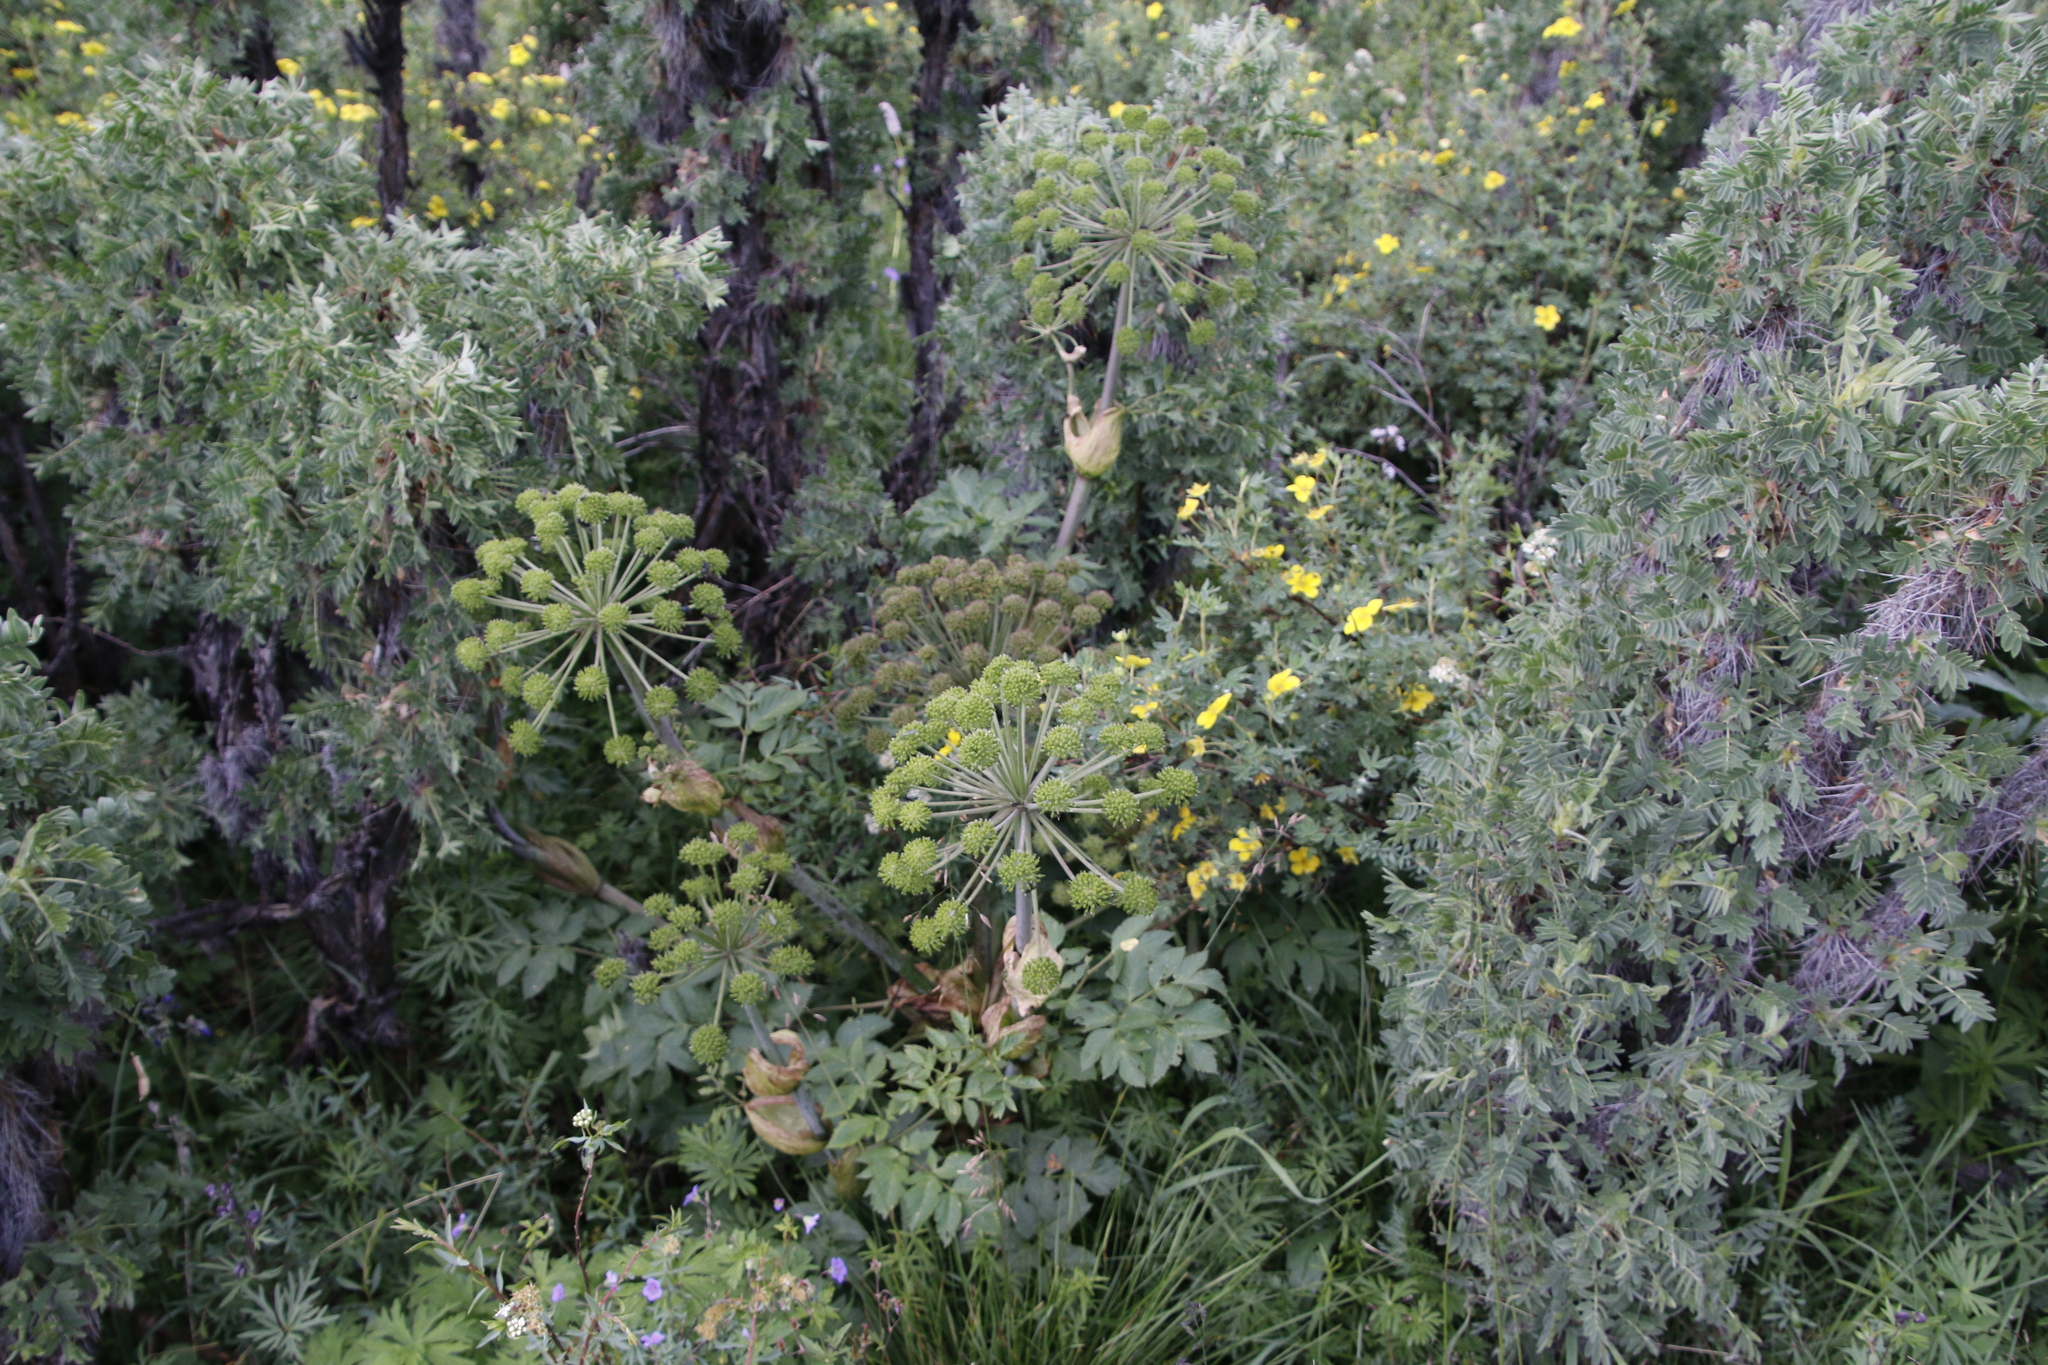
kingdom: Plantae
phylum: Tracheophyta
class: Magnoliopsida
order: Apiales
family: Apiaceae
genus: Angelica
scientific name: Angelica decurrens
